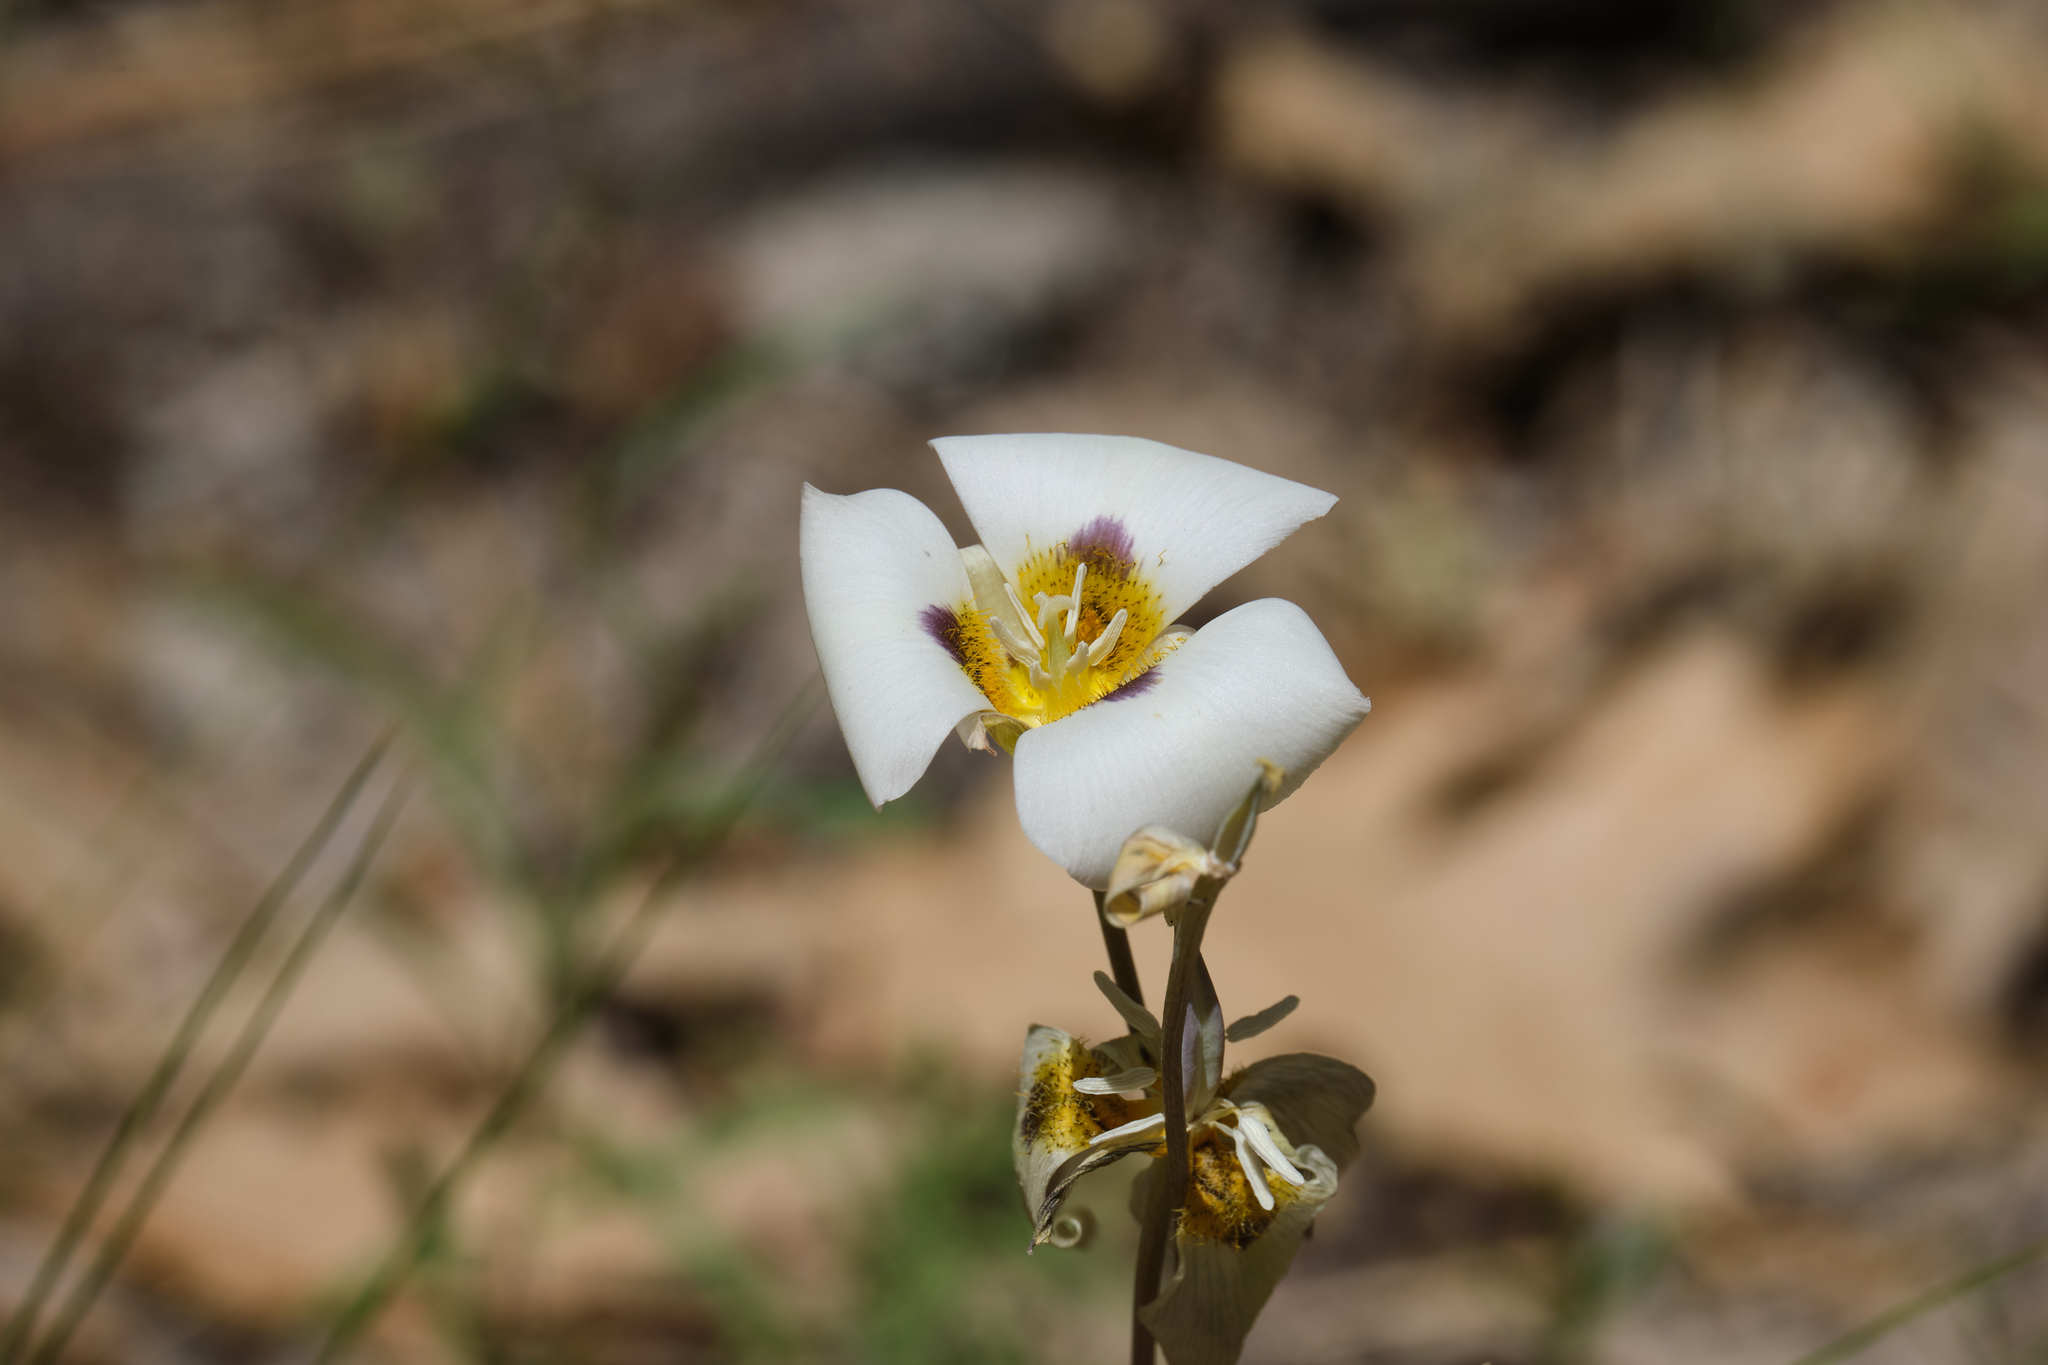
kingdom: Plantae
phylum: Tracheophyta
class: Liliopsida
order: Liliales
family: Liliaceae
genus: Calochortus
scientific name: Calochortus leichtlinii
